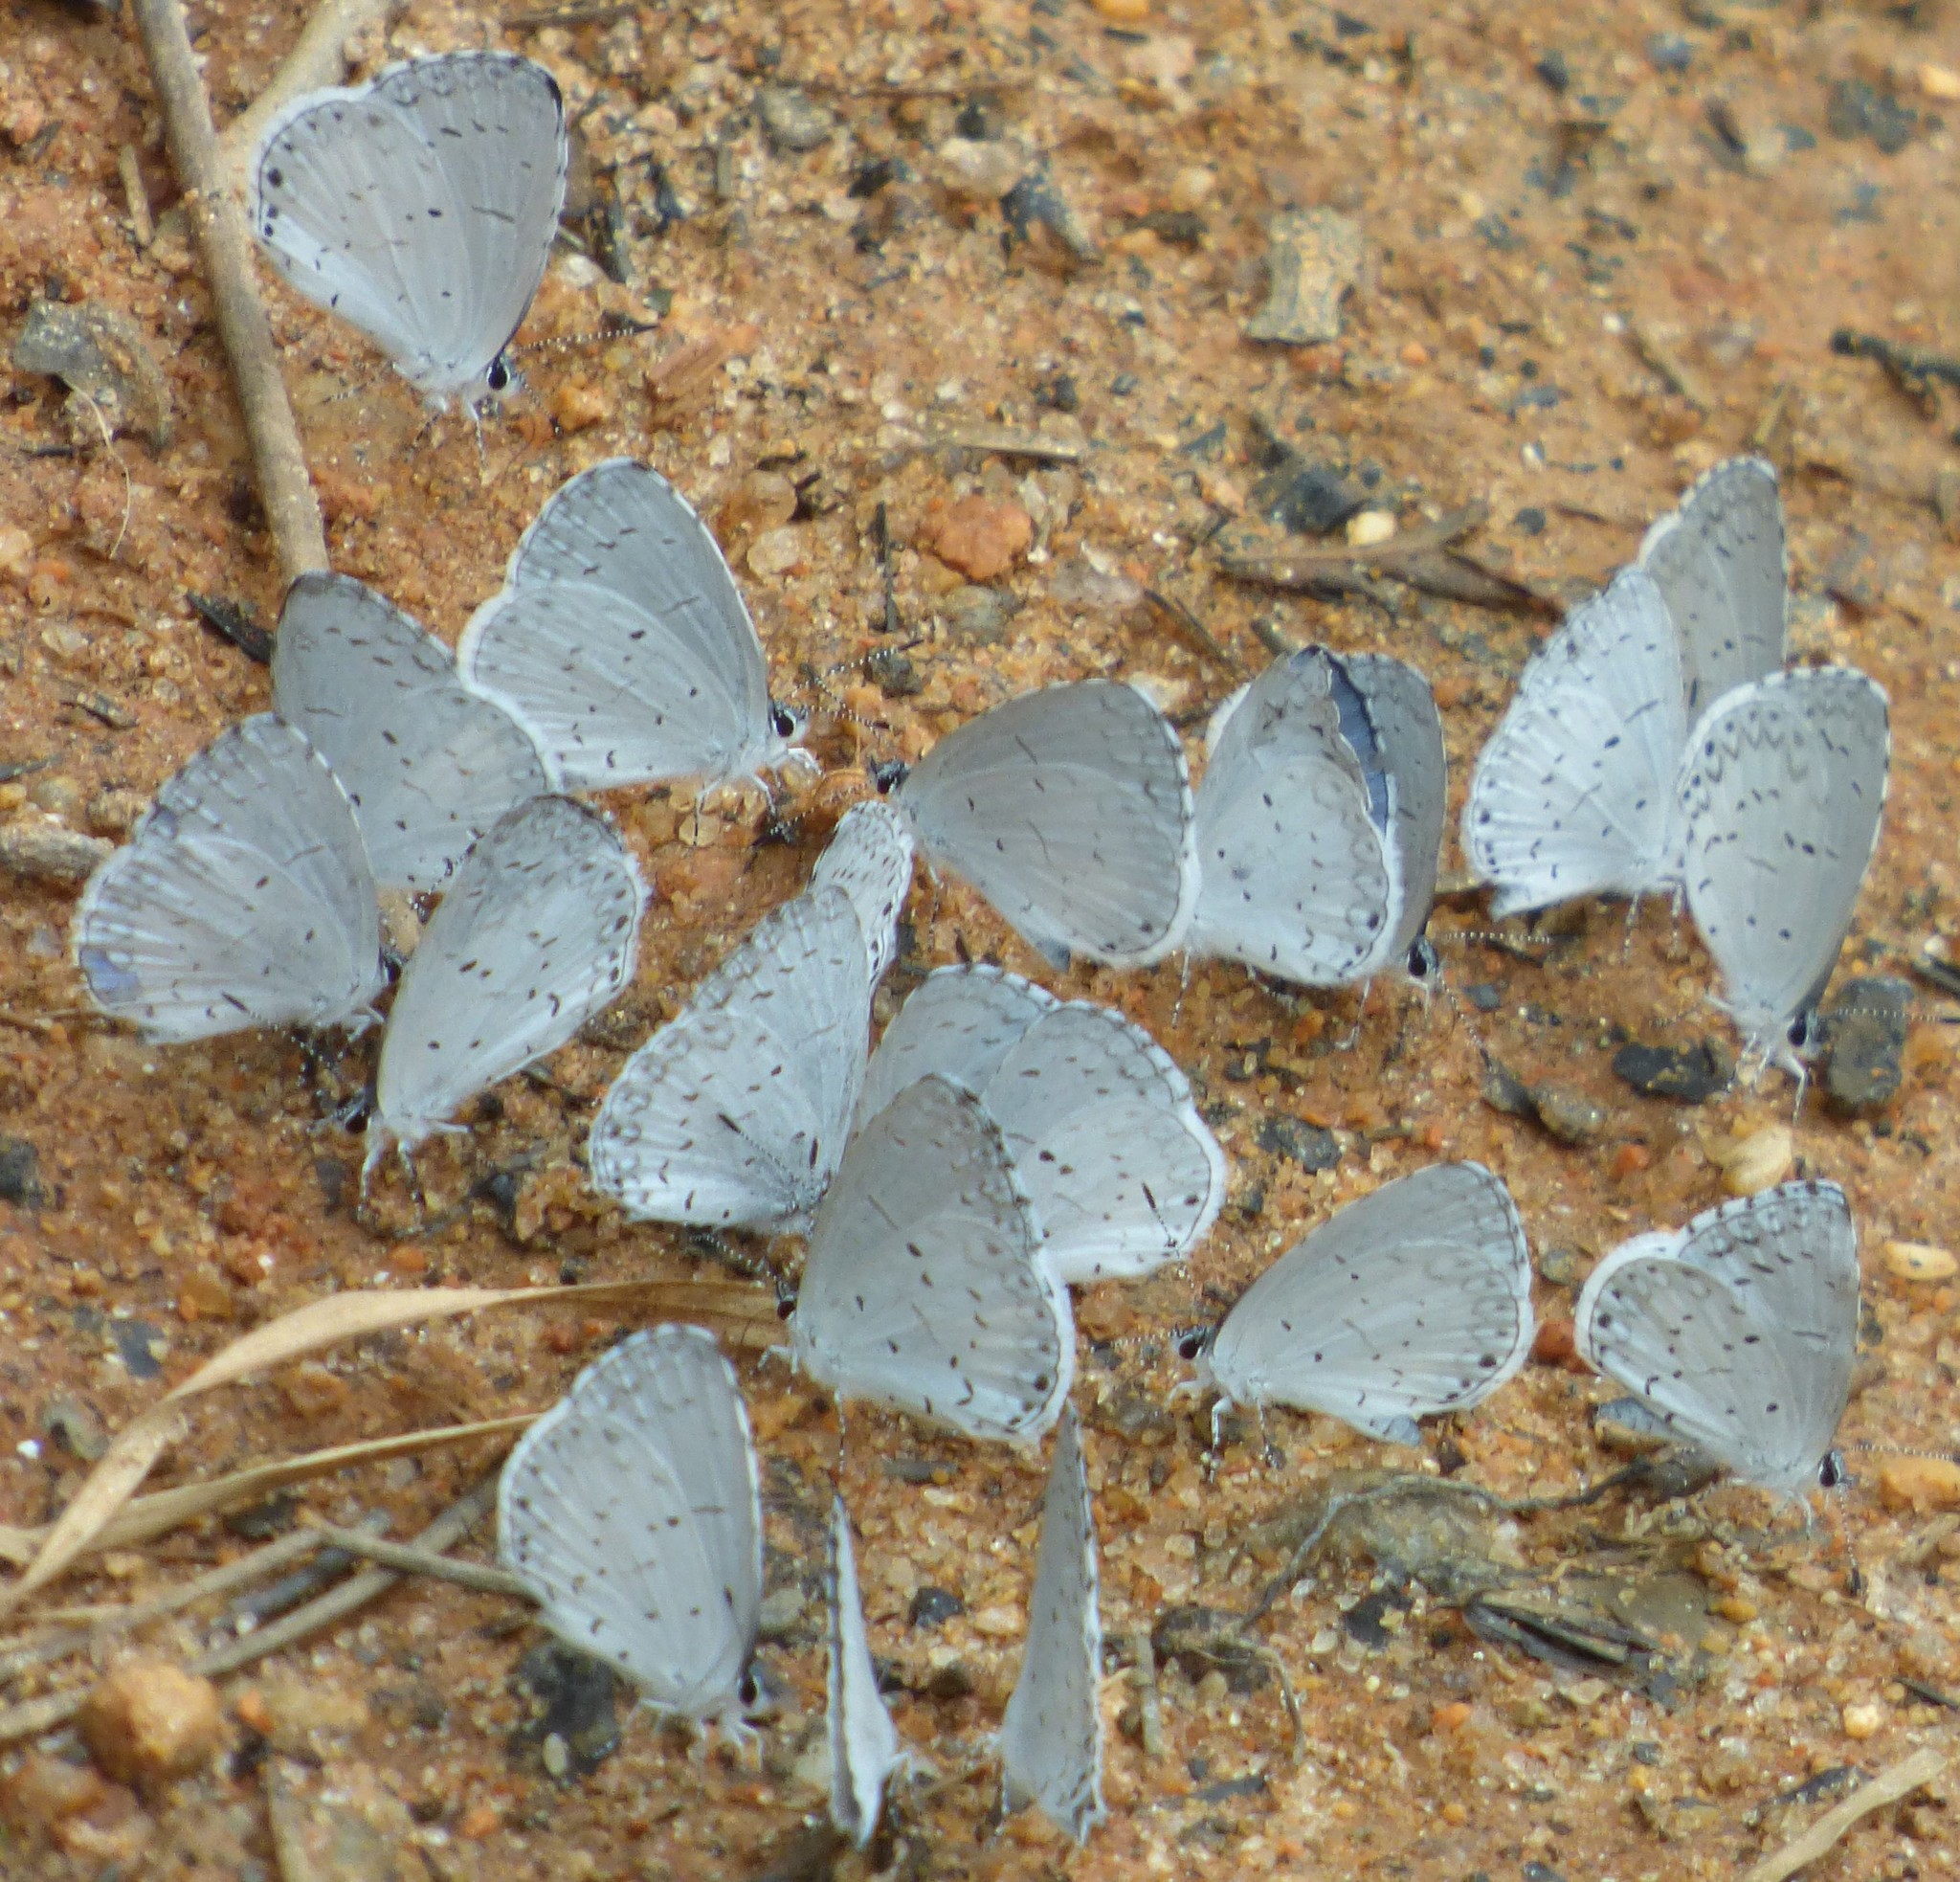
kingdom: Animalia
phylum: Arthropoda
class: Insecta
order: Lepidoptera
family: Lycaenidae
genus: Cyaniris
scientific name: Cyaniris neglecta
